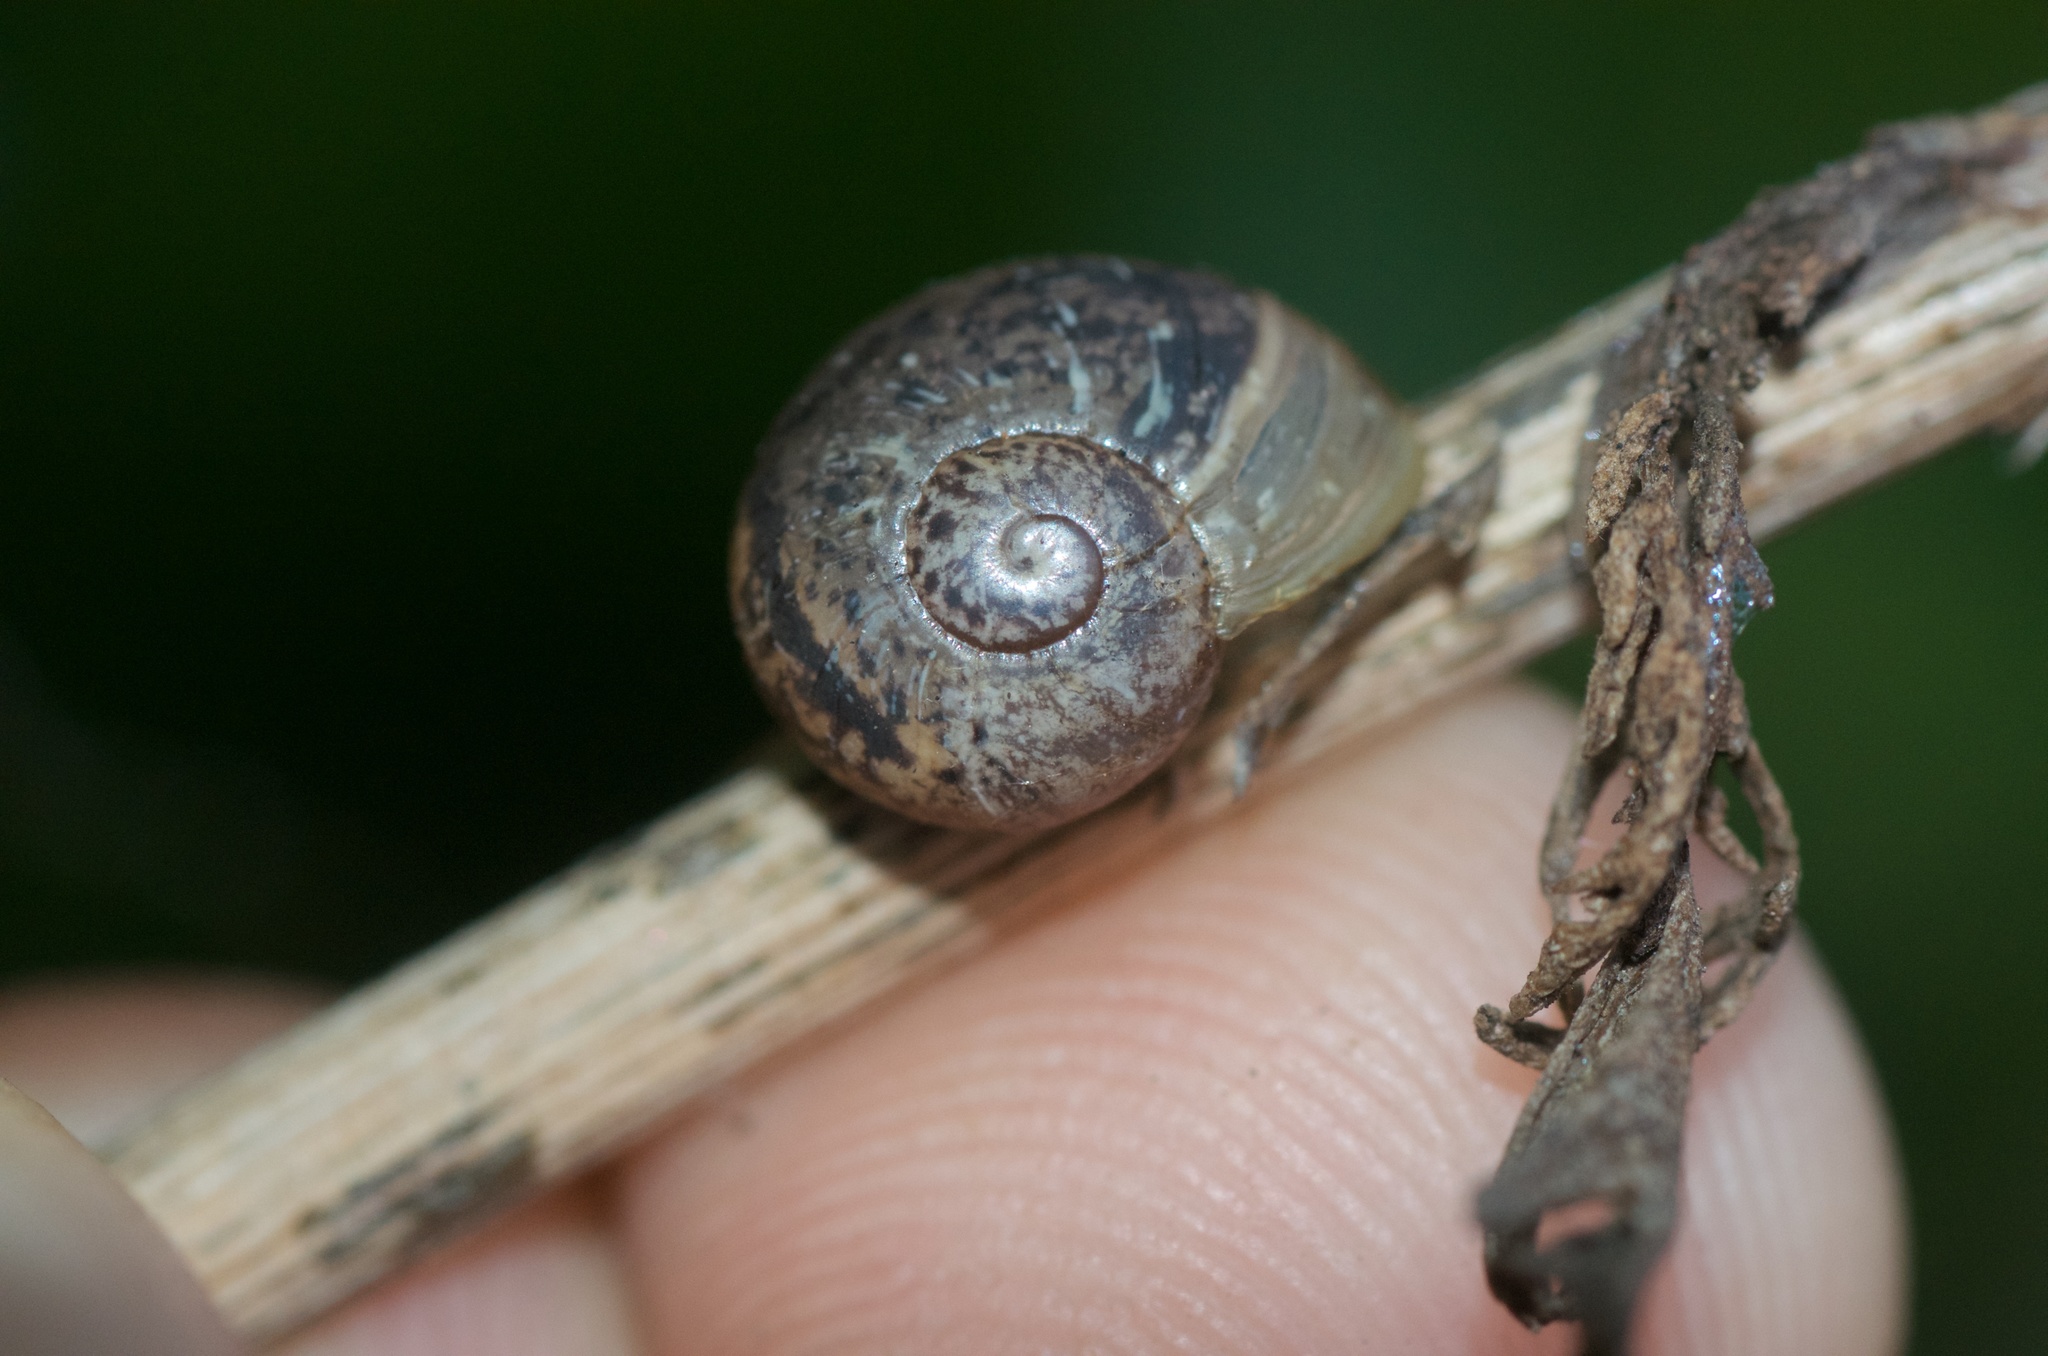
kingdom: Animalia
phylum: Mollusca
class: Gastropoda
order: Stylommatophora
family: Helicidae
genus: Cornu
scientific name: Cornu aspersum
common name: Brown garden snail
